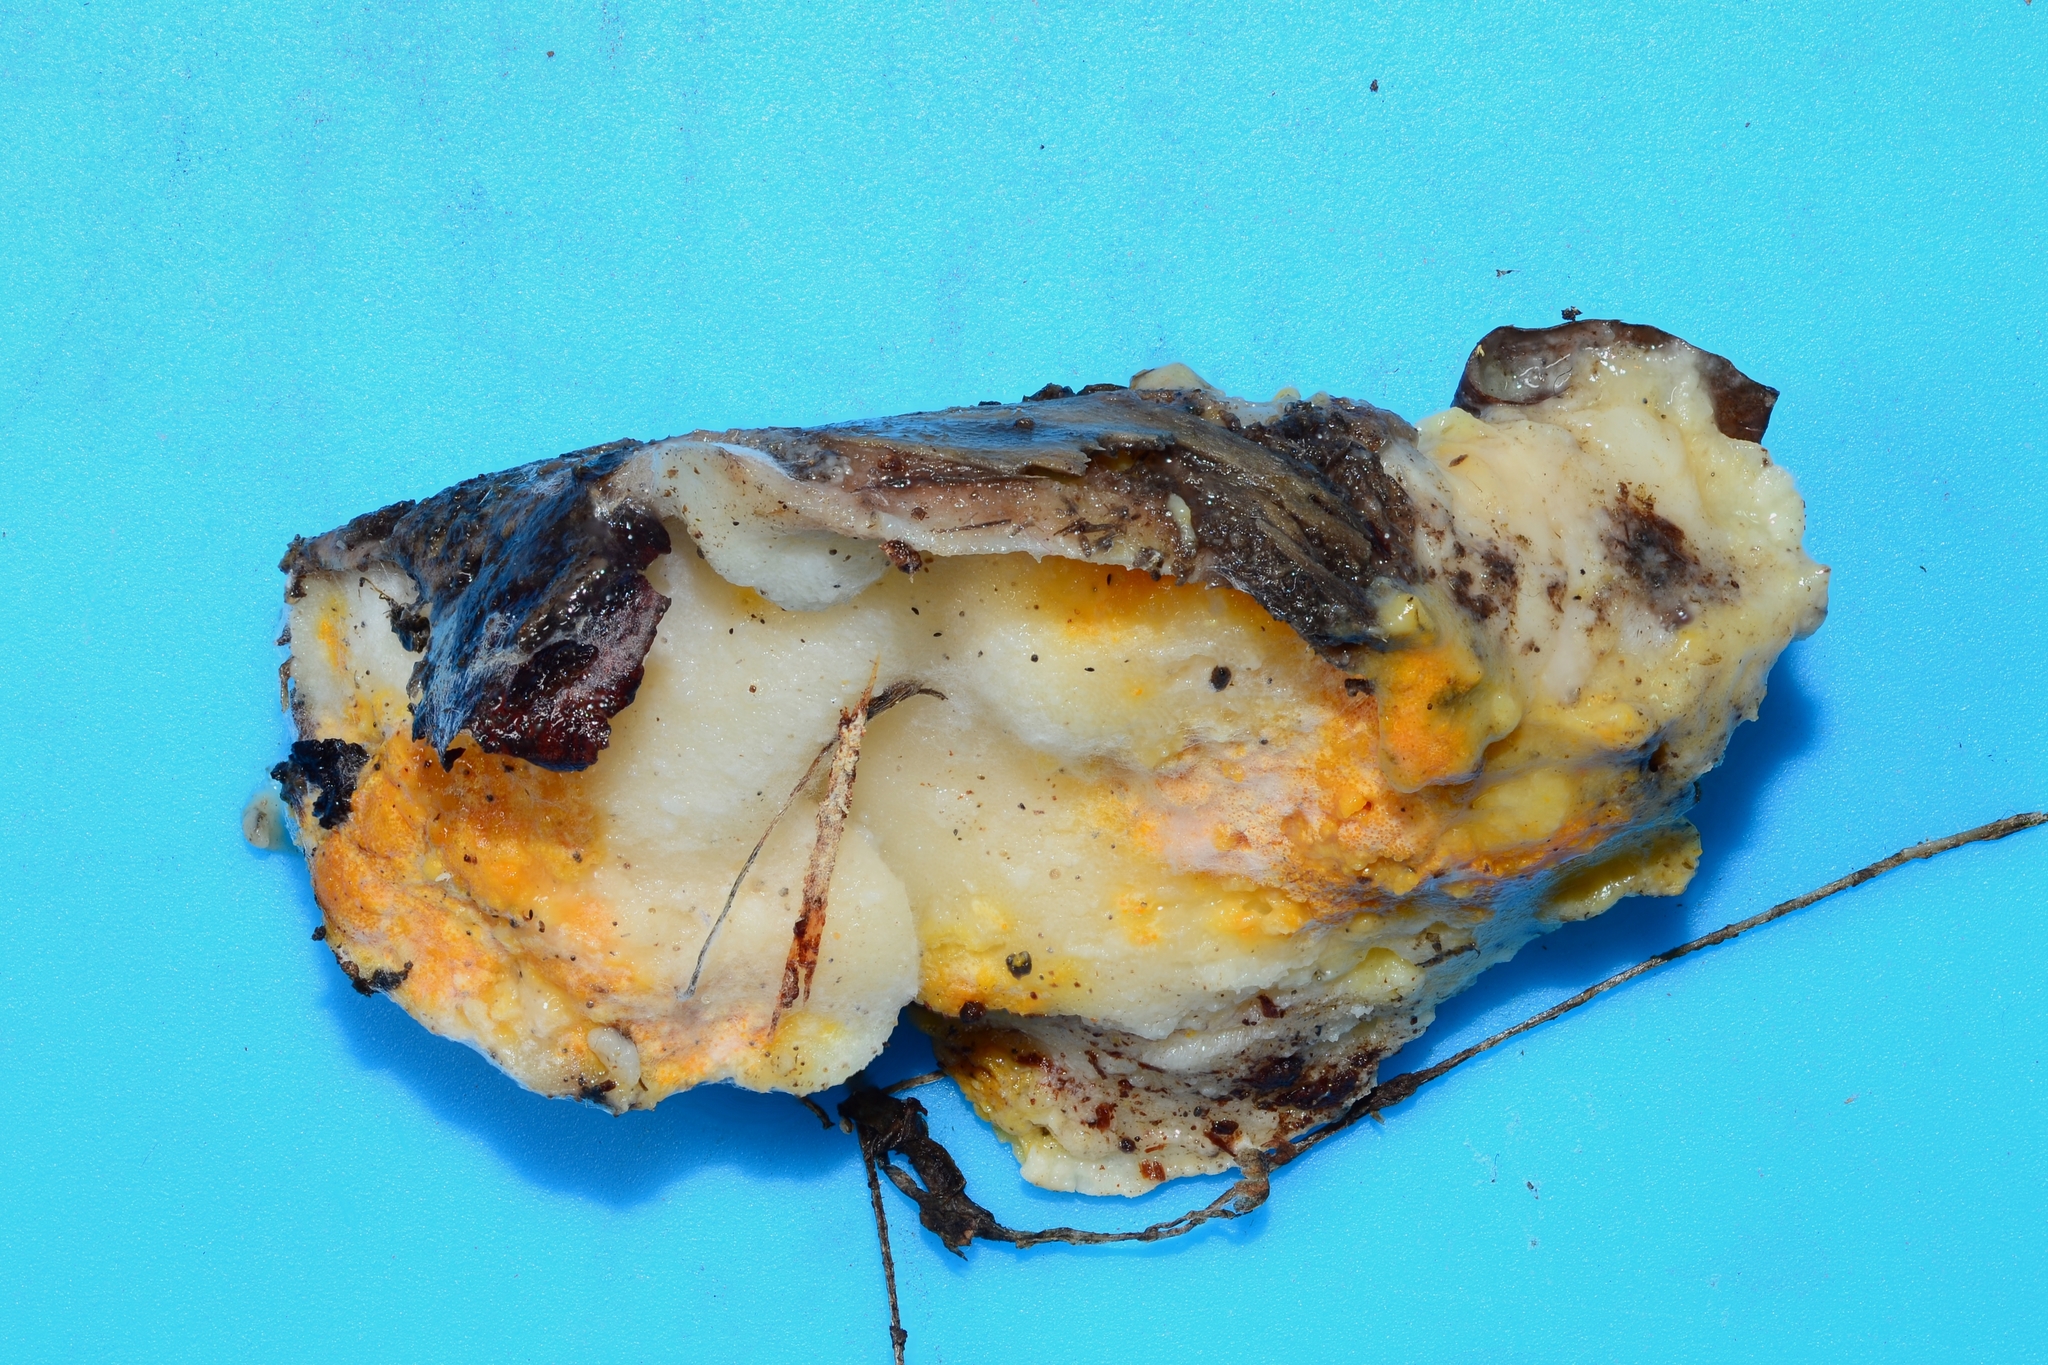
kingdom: Fungi
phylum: Ascomycota
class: Sordariomycetes
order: Hypocreales
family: Hypocreaceae
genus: Protocrea
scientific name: Protocrea pallida
